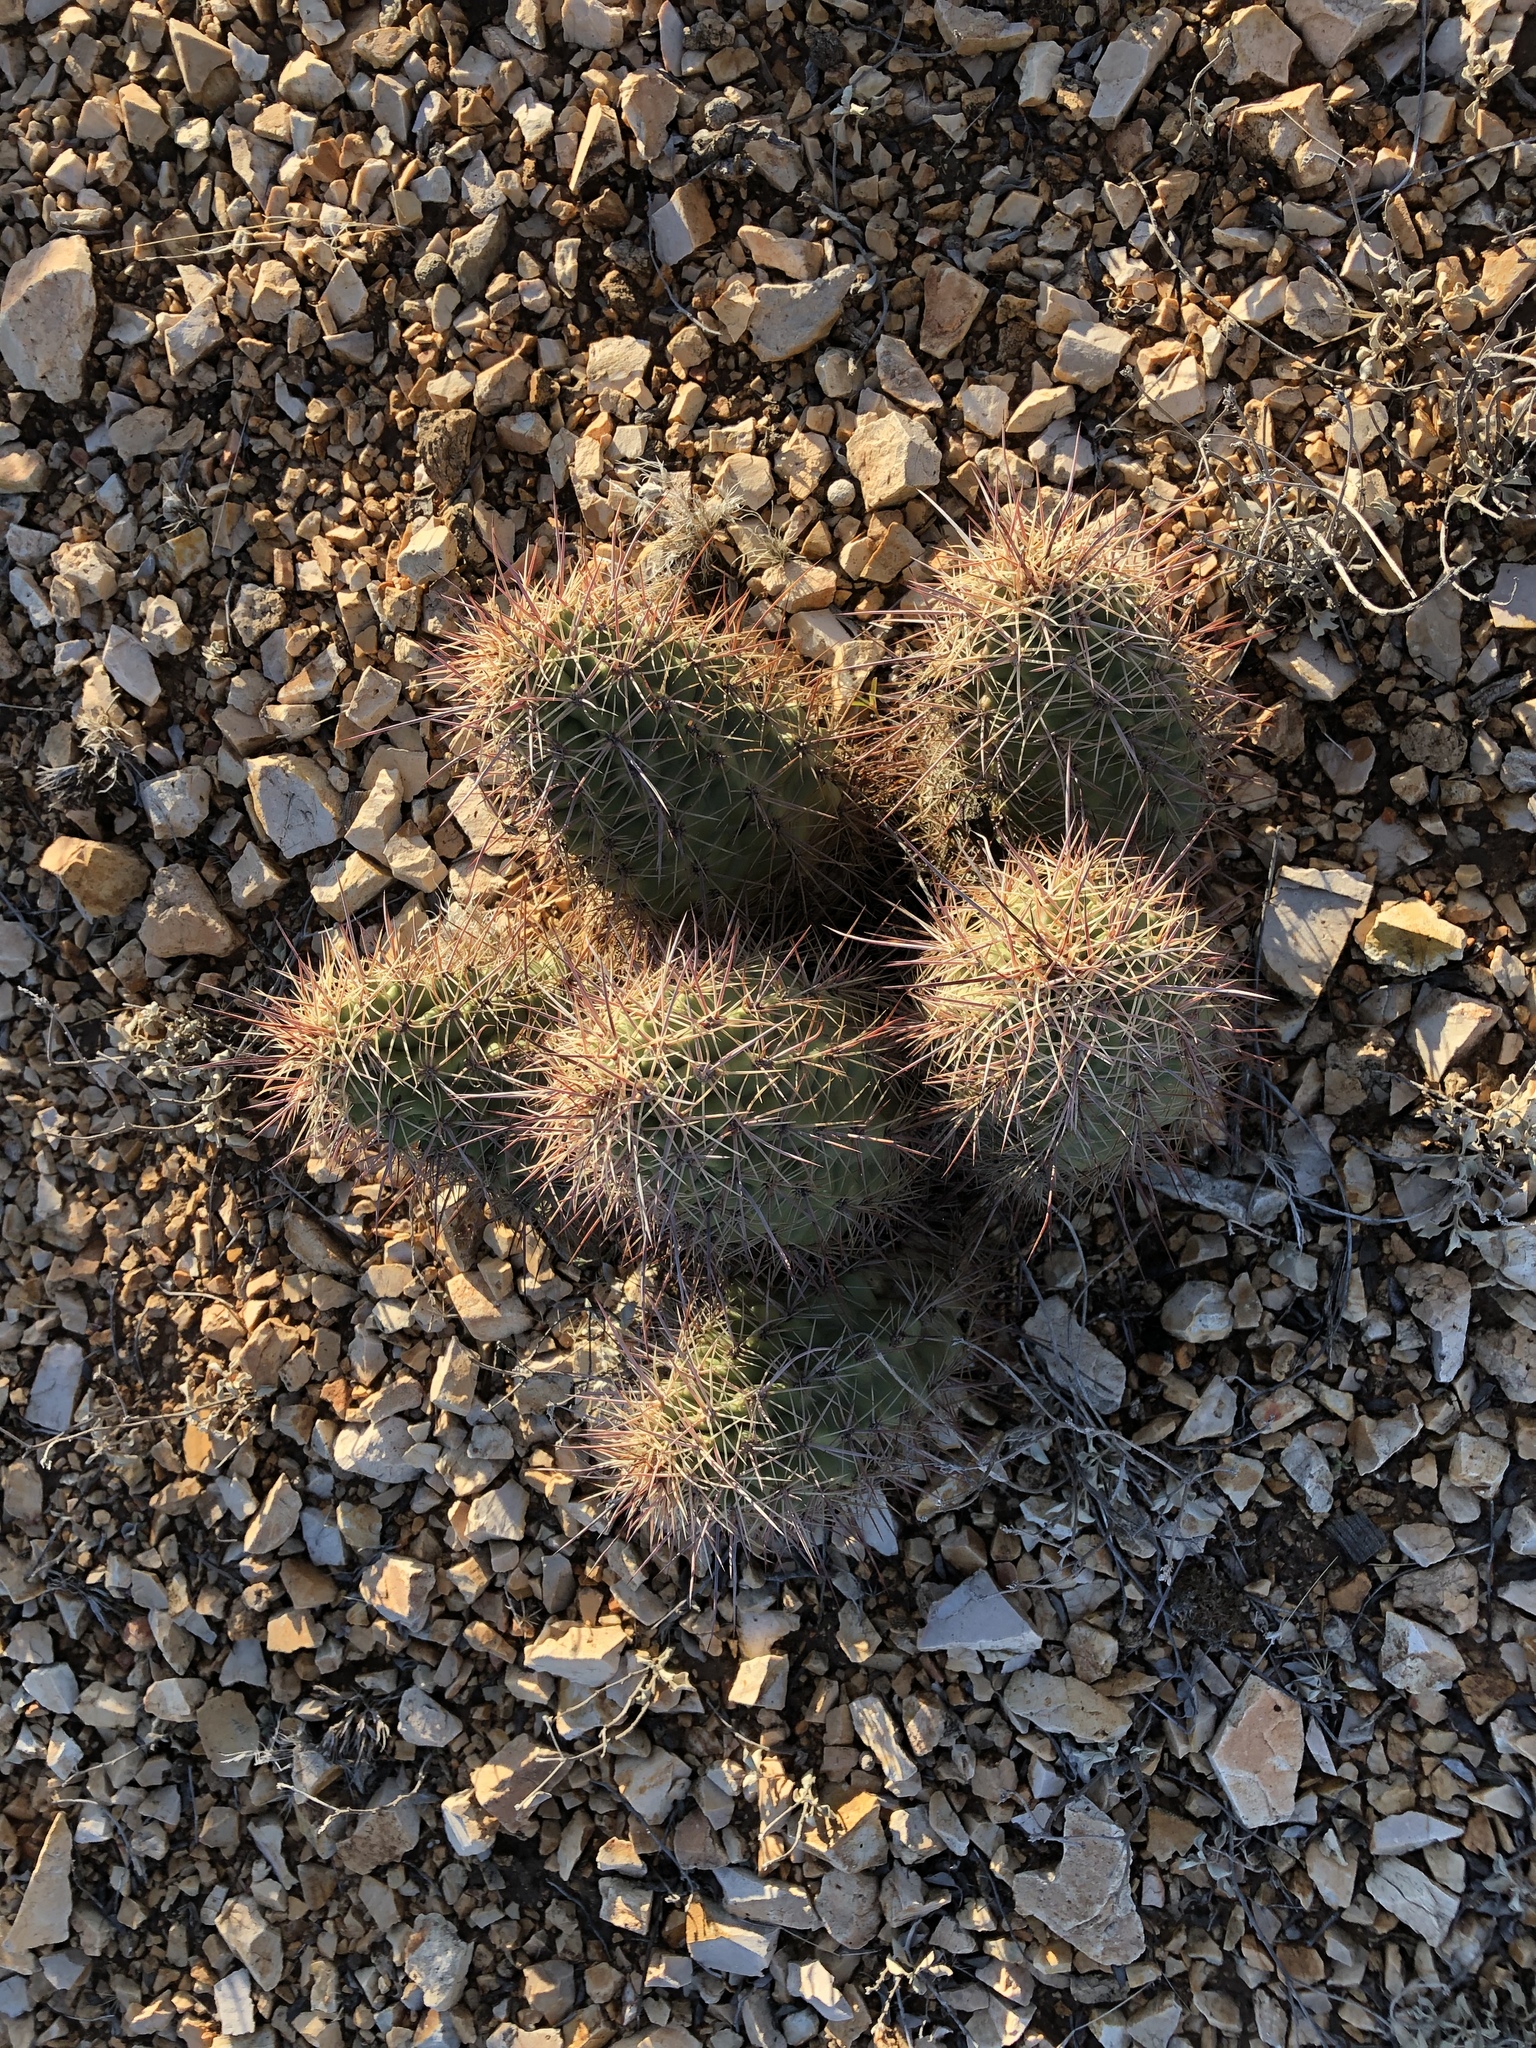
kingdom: Plantae
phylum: Tracheophyta
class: Magnoliopsida
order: Caryophyllales
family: Cactaceae
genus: Echinocereus
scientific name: Echinocereus coccineus
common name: Scarlet hedgehog cactus
